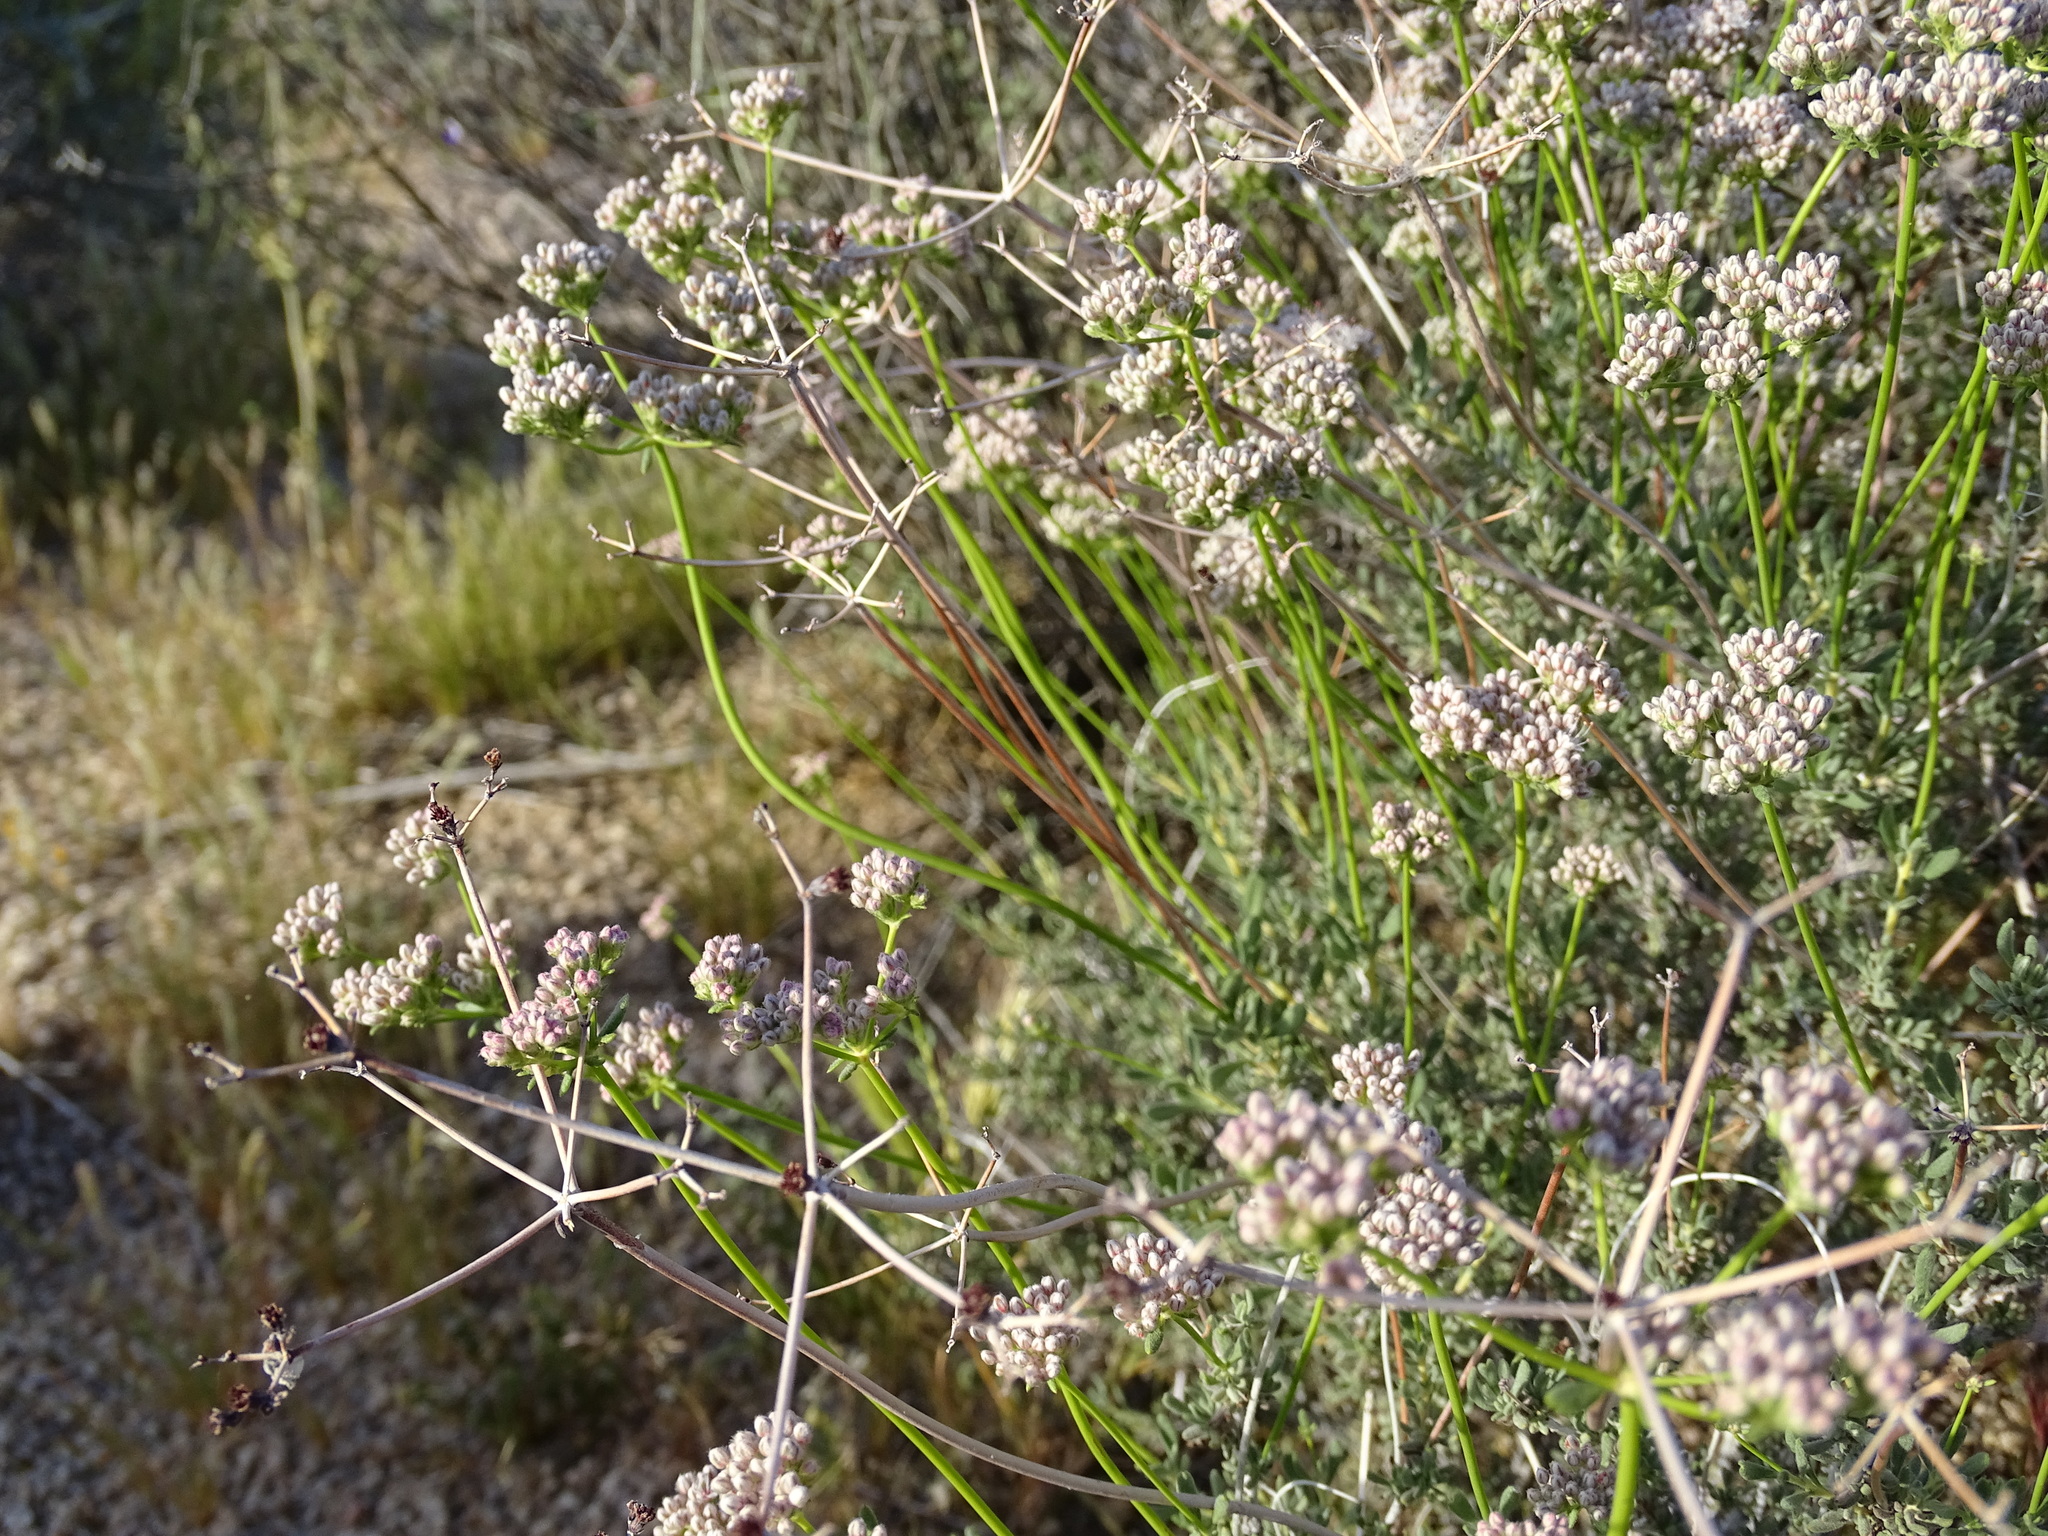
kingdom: Plantae
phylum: Tracheophyta
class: Magnoliopsida
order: Caryophyllales
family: Polygonaceae
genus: Eriogonum
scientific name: Eriogonum fasciculatum
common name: California wild buckwheat
